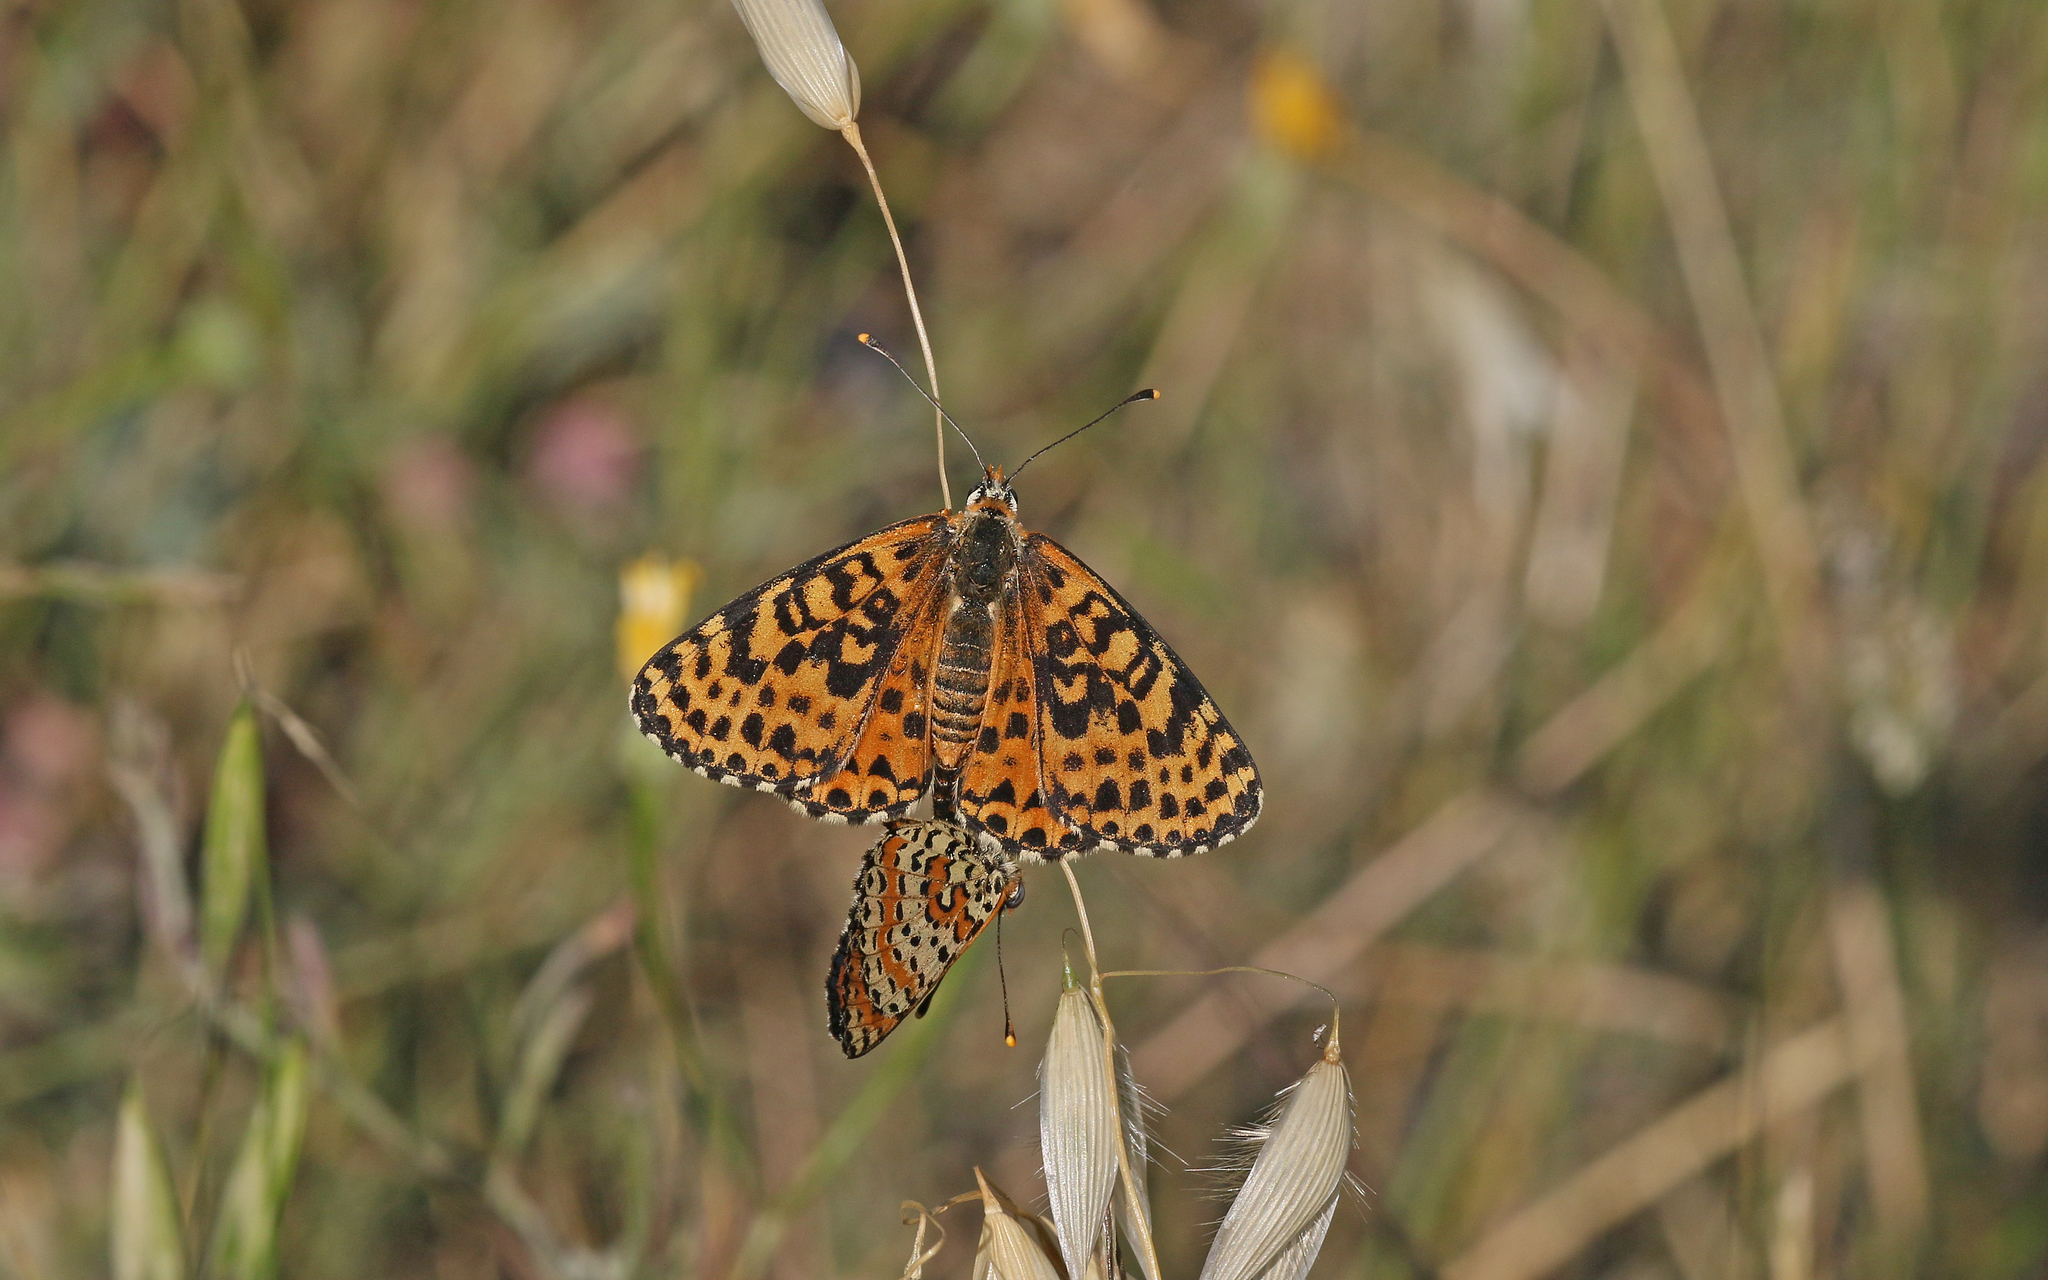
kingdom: Animalia
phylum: Arthropoda
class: Insecta
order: Lepidoptera
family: Nymphalidae
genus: Melitaea
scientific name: Melitaea didyma
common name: Spotted fritillary
